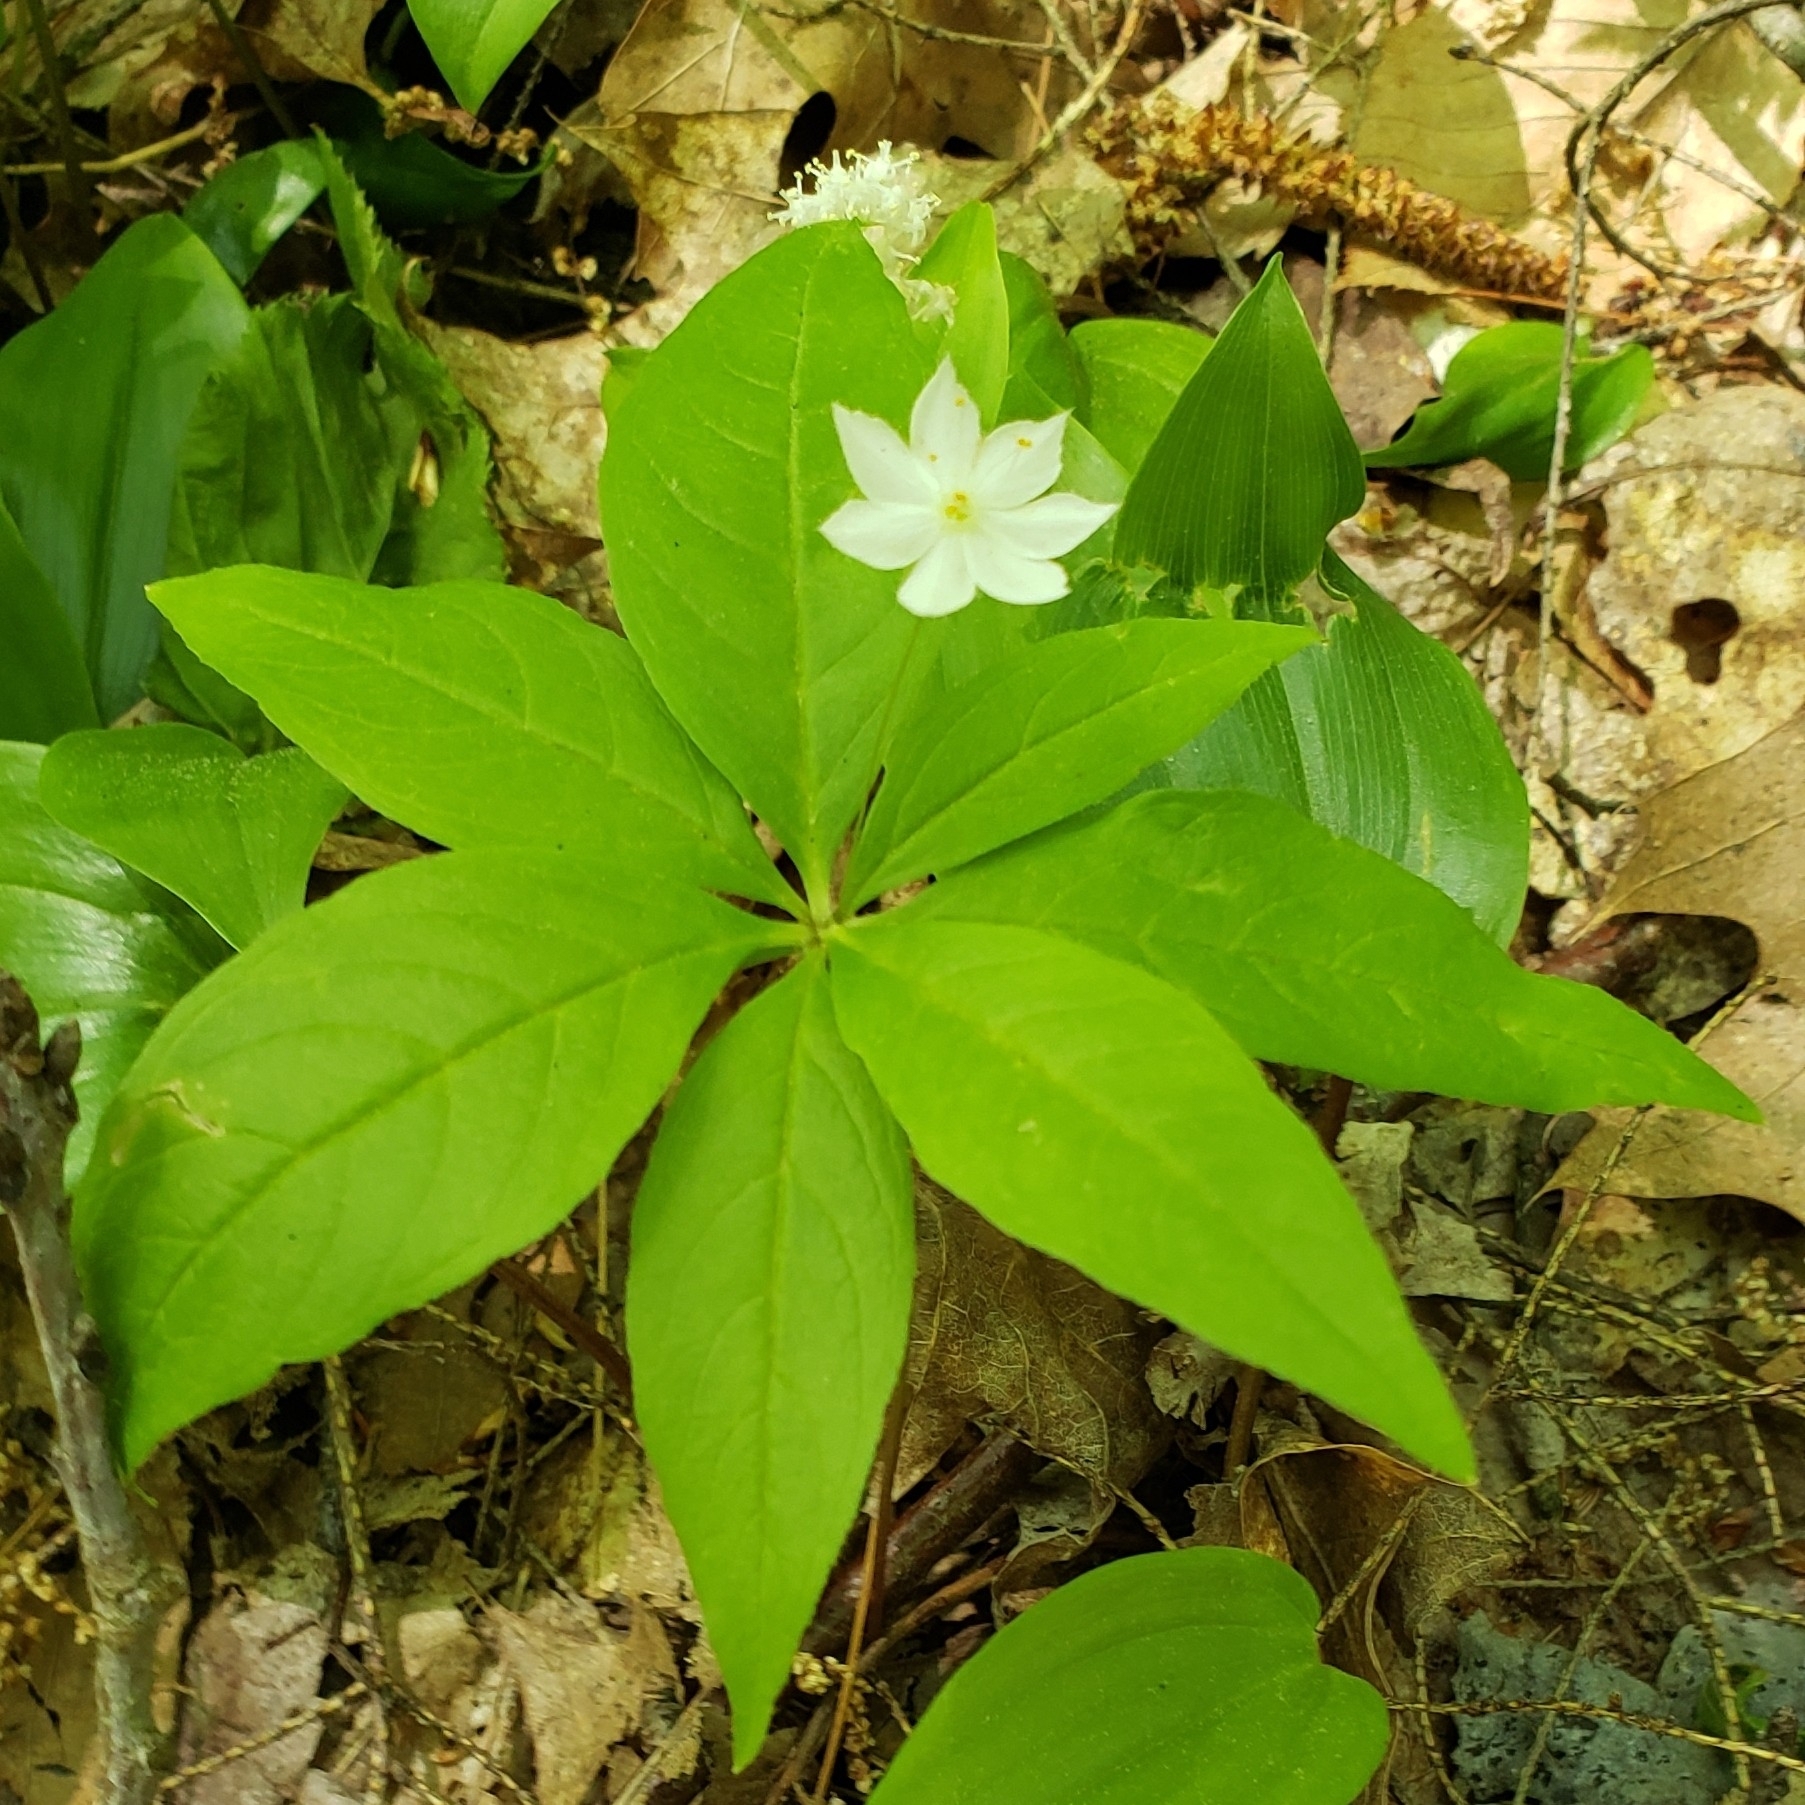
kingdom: Plantae
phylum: Tracheophyta
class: Magnoliopsida
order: Ericales
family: Primulaceae
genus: Lysimachia
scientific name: Lysimachia borealis
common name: American starflower
